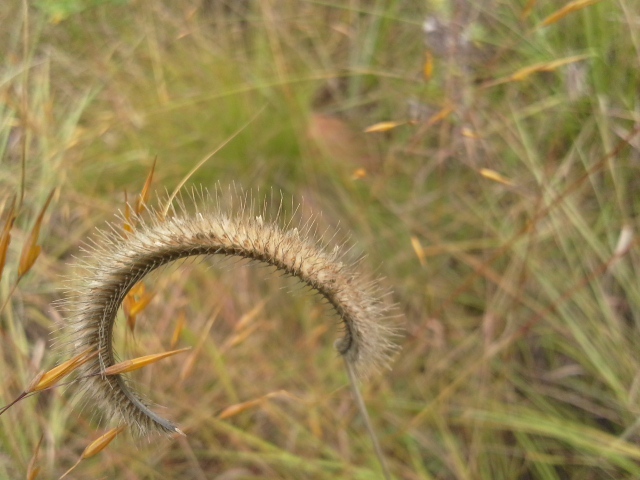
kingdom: Plantae
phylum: Tracheophyta
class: Liliopsida
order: Poales
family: Poaceae
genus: Ctenium
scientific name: Ctenium concinnum
